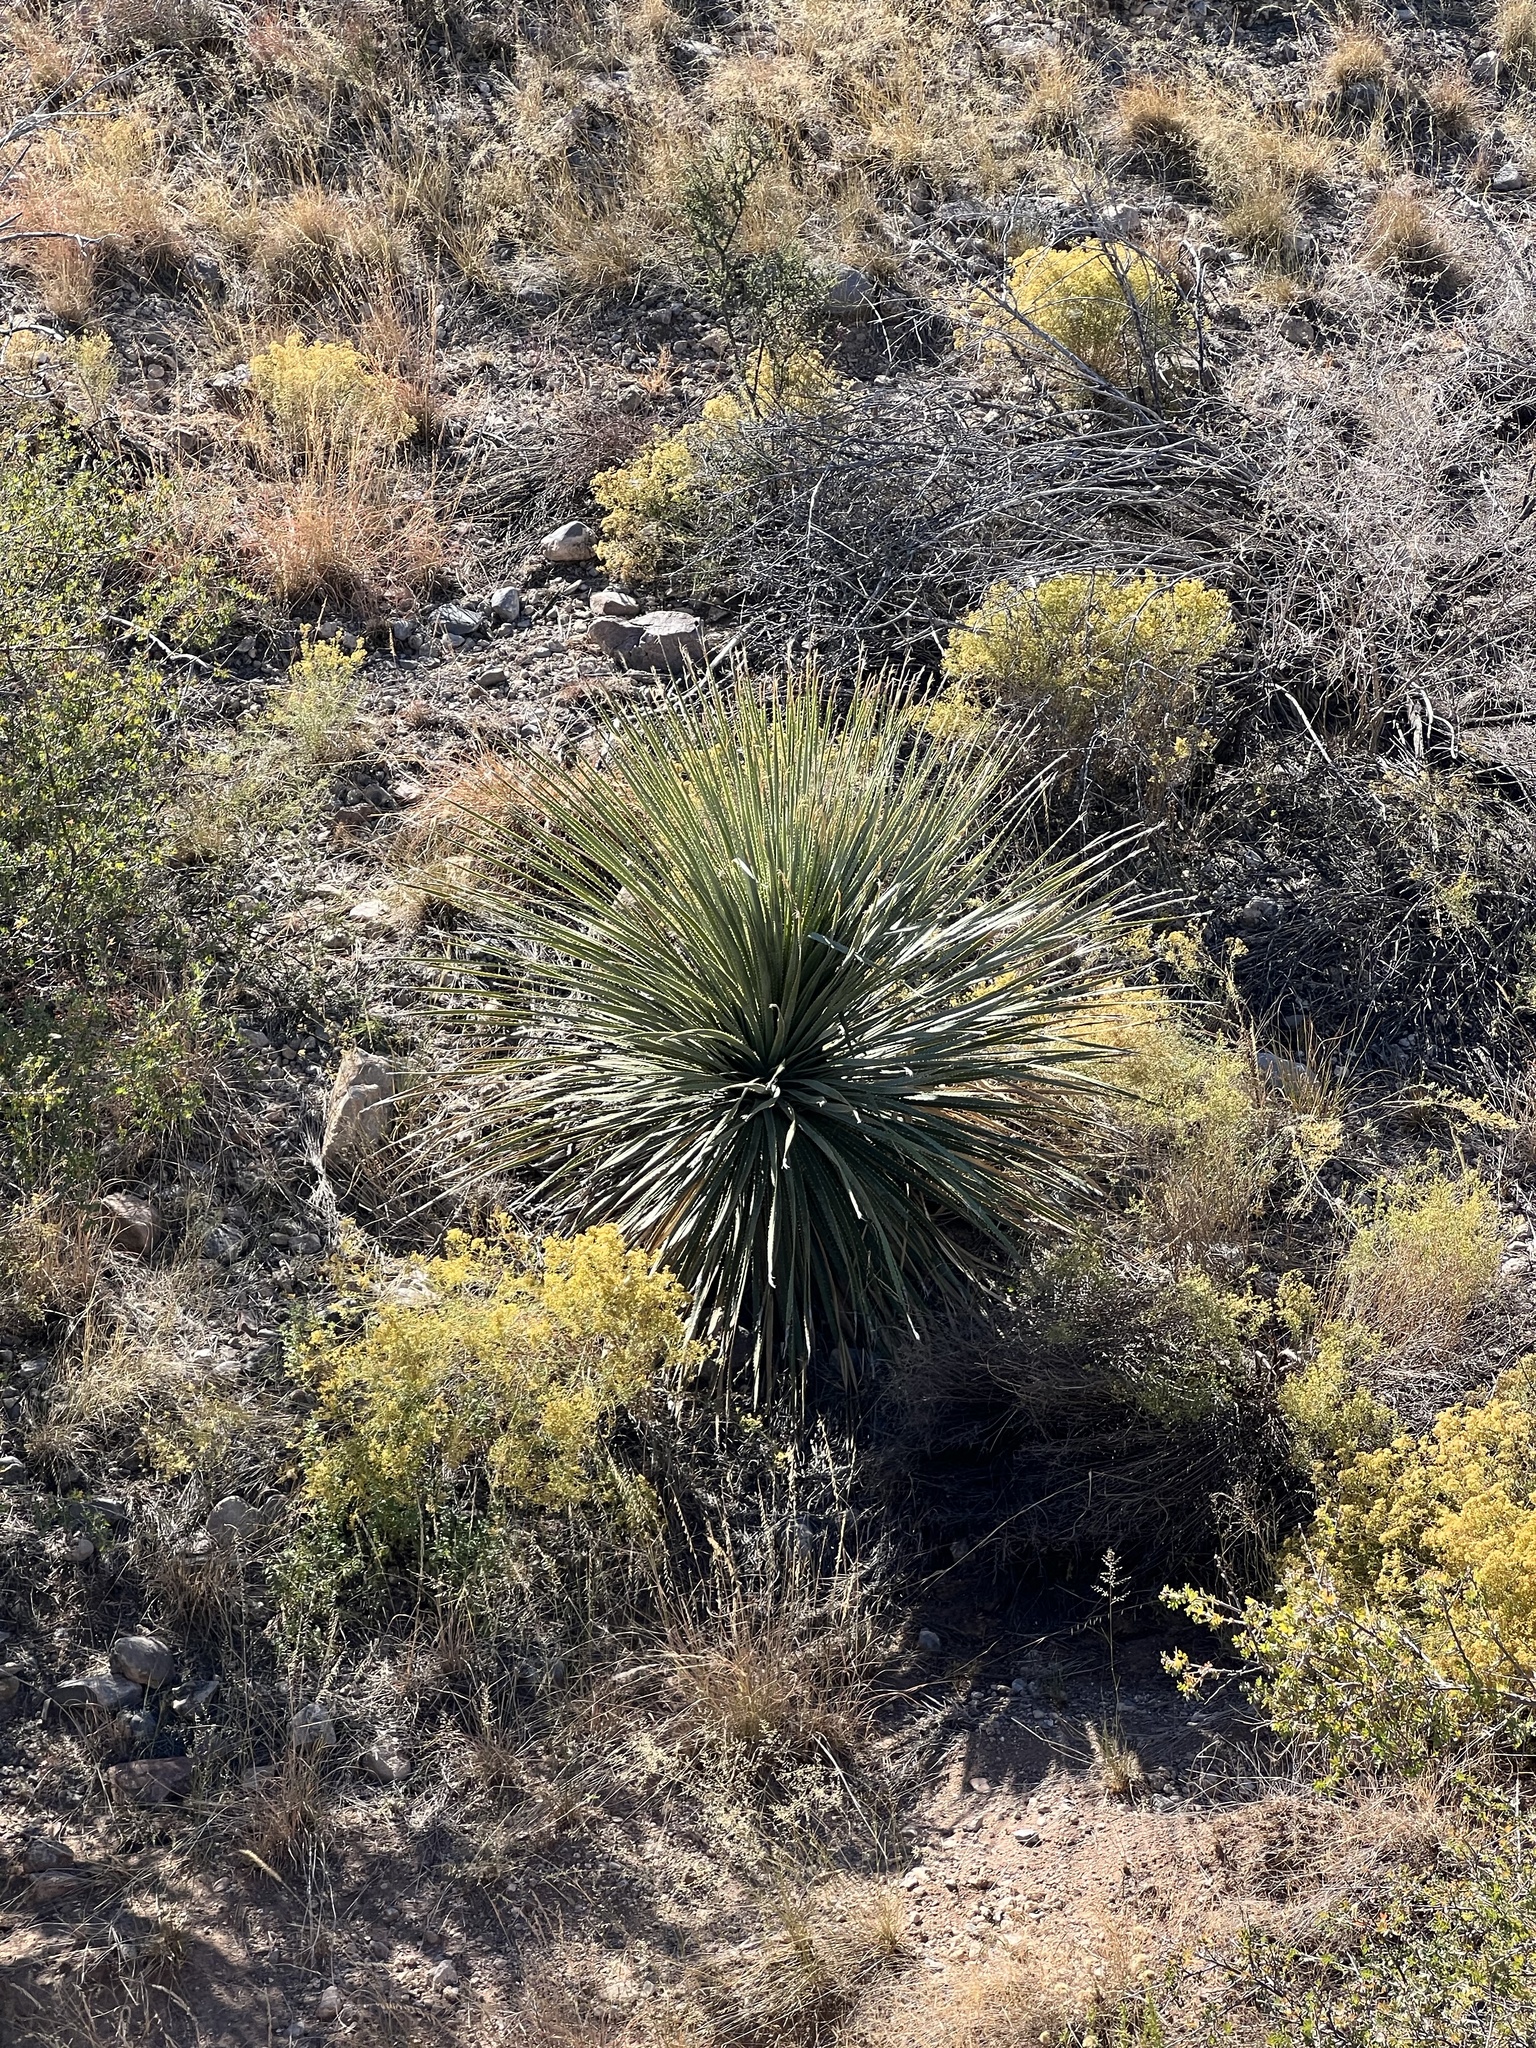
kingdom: Plantae
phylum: Tracheophyta
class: Liliopsida
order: Asparagales
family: Asparagaceae
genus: Dasylirion
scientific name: Dasylirion wheeleri
